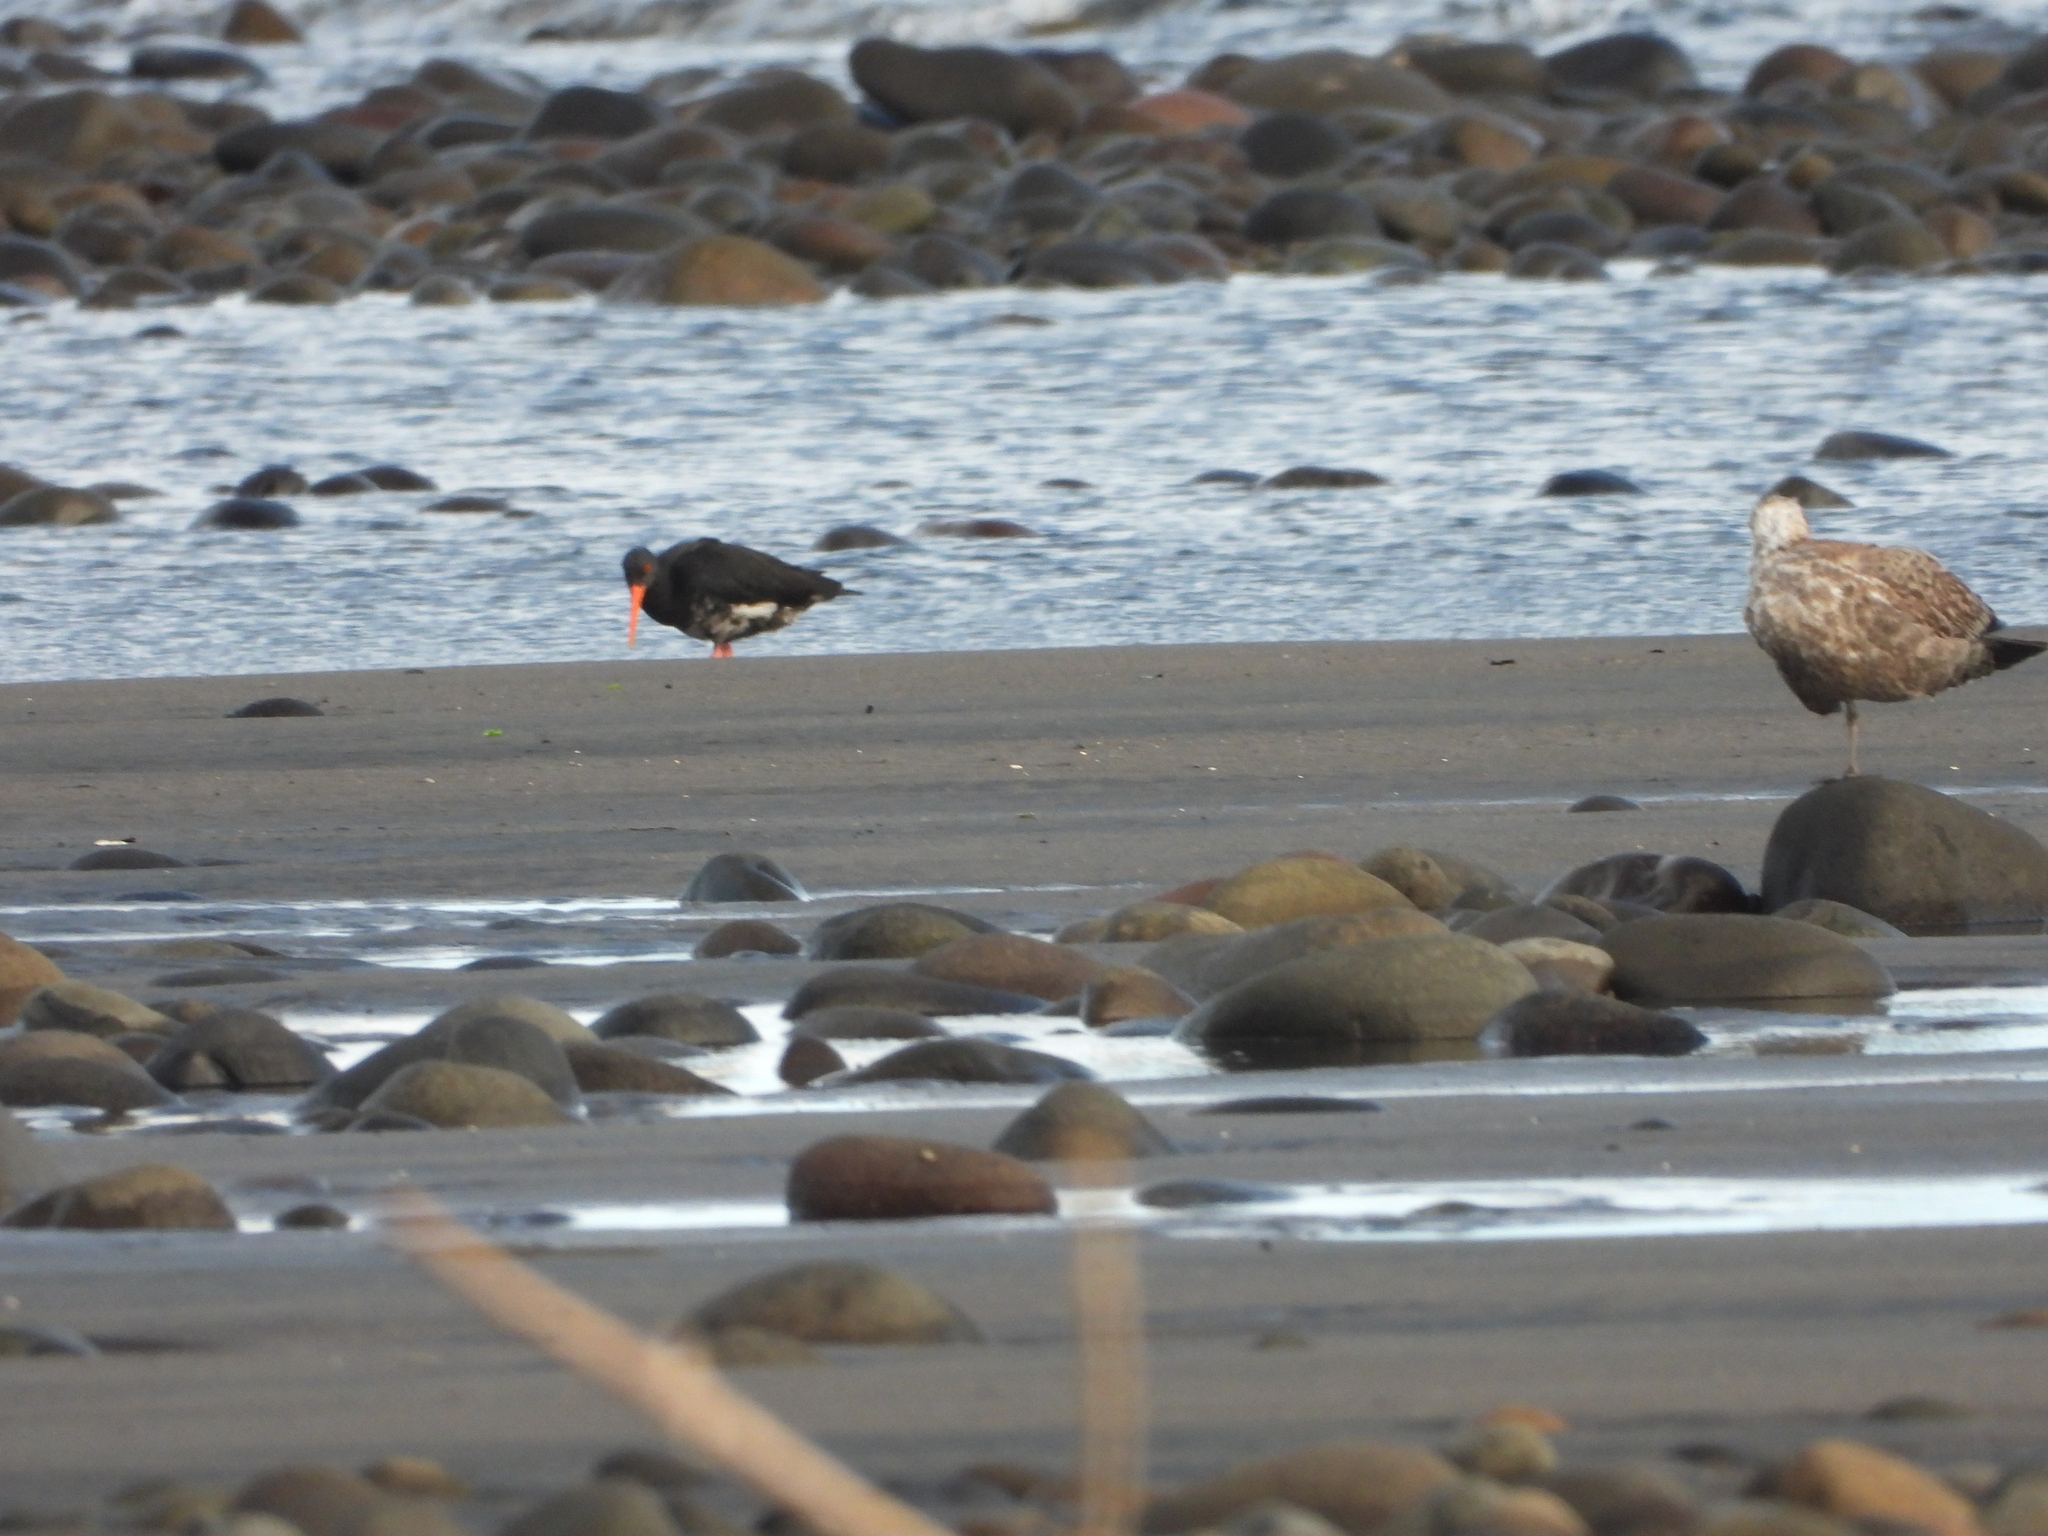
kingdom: Animalia
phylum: Chordata
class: Aves
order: Charadriiformes
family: Haematopodidae
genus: Haematopus
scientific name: Haematopus unicolor
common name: Variable oystercatcher
